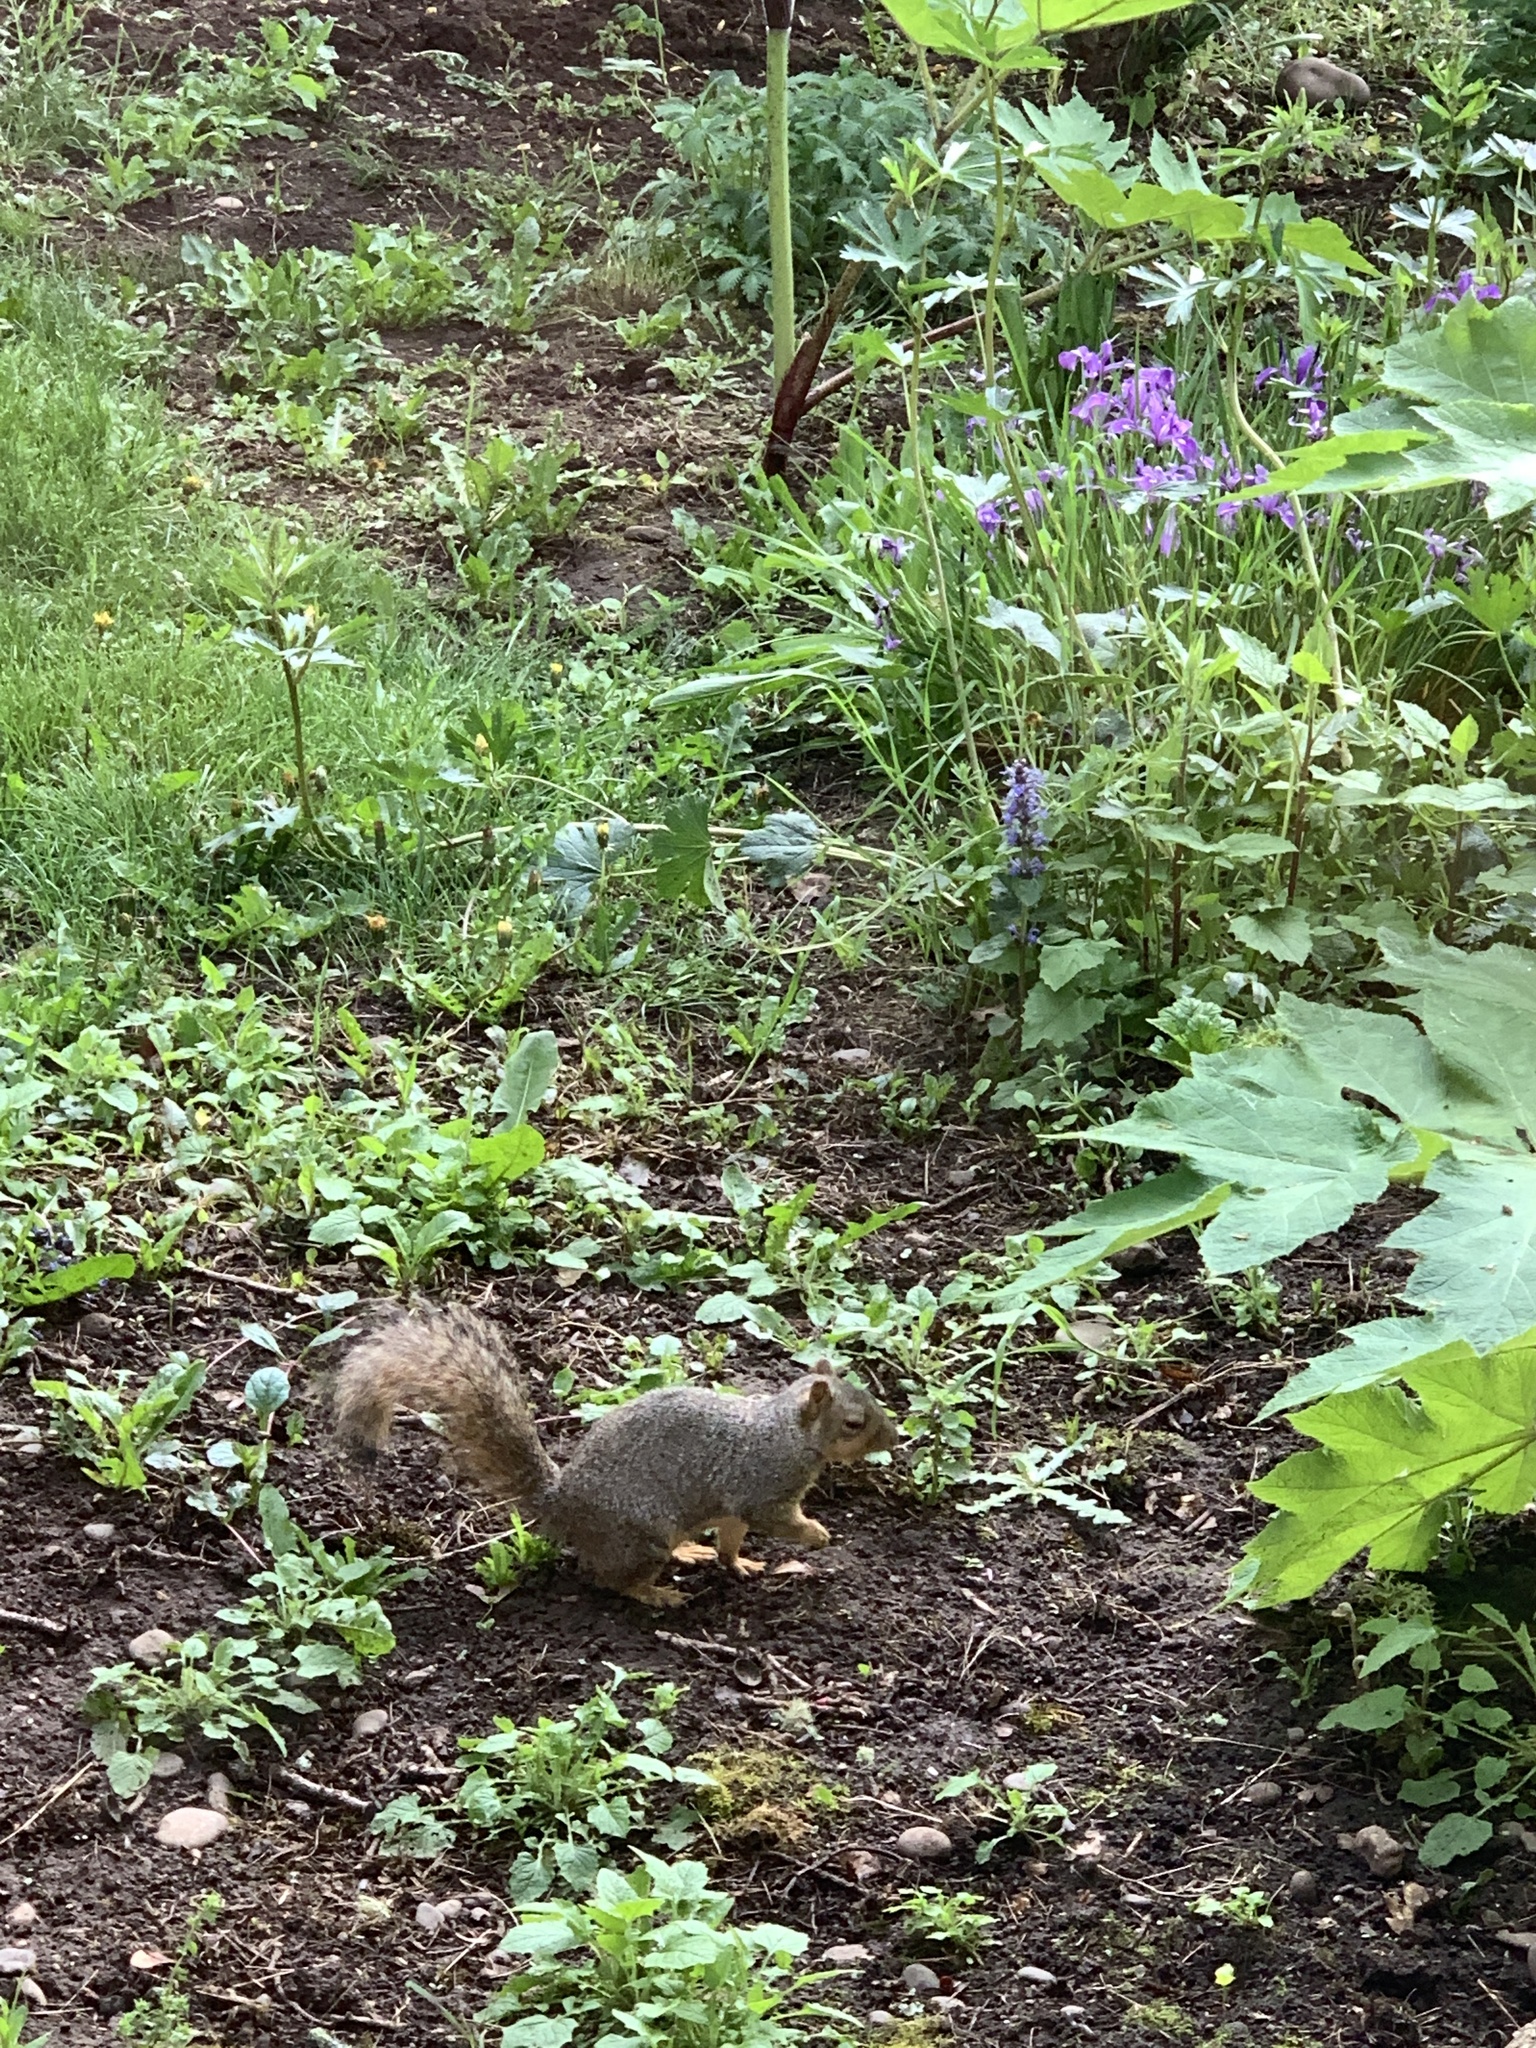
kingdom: Animalia
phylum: Chordata
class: Mammalia
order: Rodentia
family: Sciuridae
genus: Sciurus
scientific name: Sciurus niger
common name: Fox squirrel
